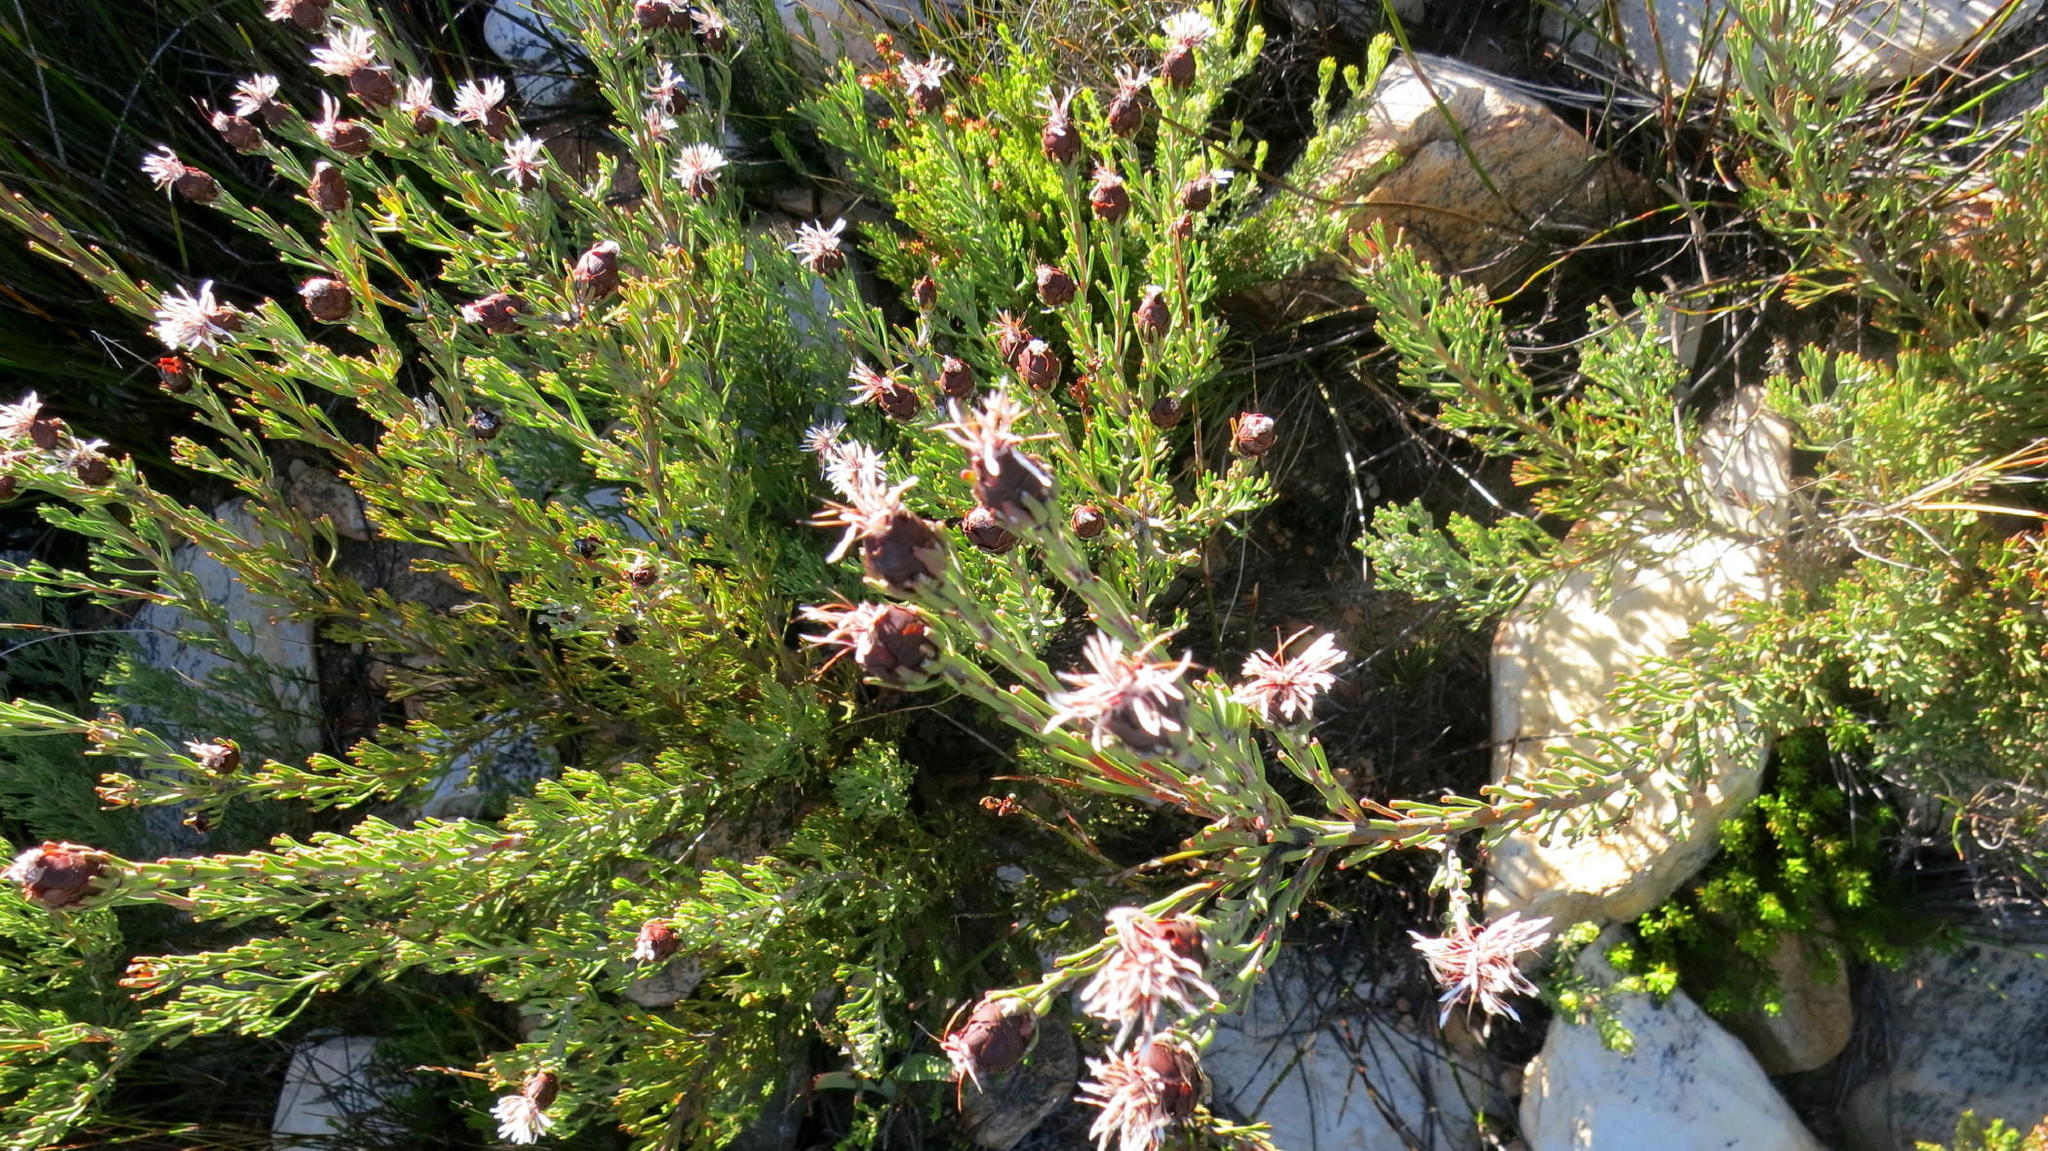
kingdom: Plantae
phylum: Tracheophyta
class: Magnoliopsida
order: Proteales
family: Proteaceae
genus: Paranomus
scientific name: Paranomus centaureoides
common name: Ladismith sceptre
